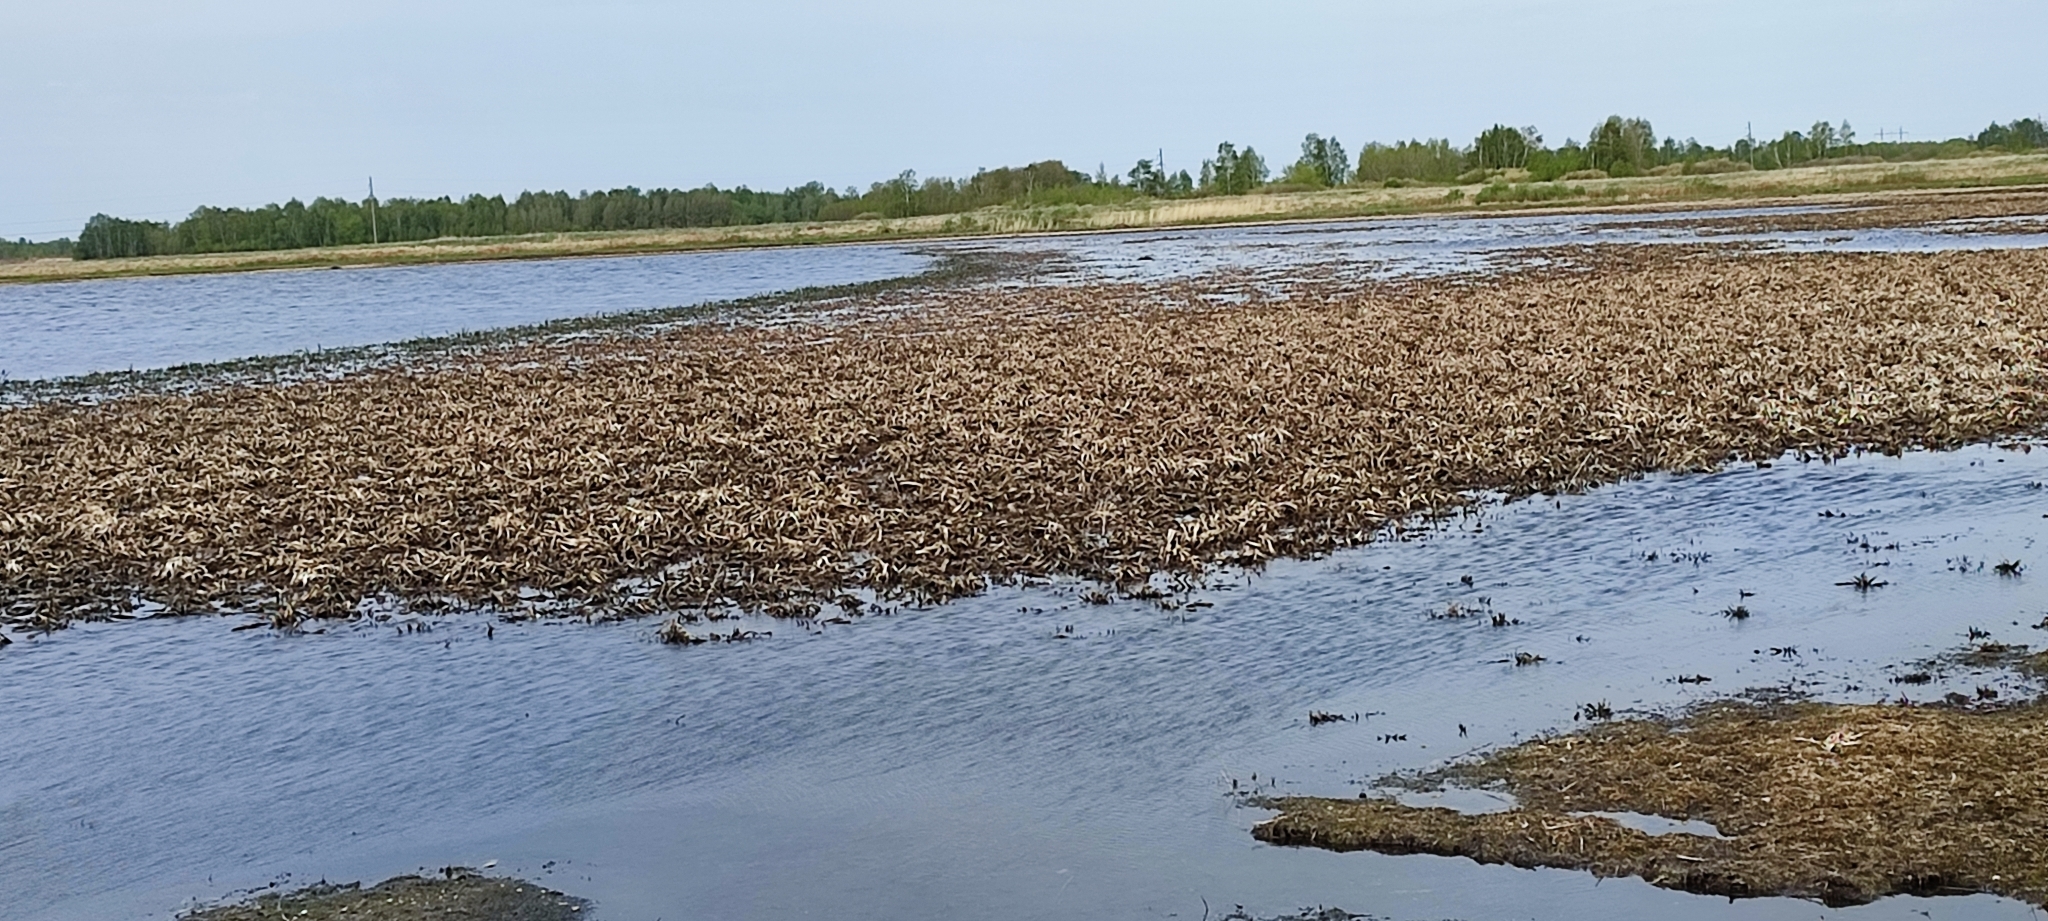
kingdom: Plantae
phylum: Tracheophyta
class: Liliopsida
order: Alismatales
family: Hydrocharitaceae
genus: Stratiotes
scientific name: Stratiotes aloides
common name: Water-soldier
